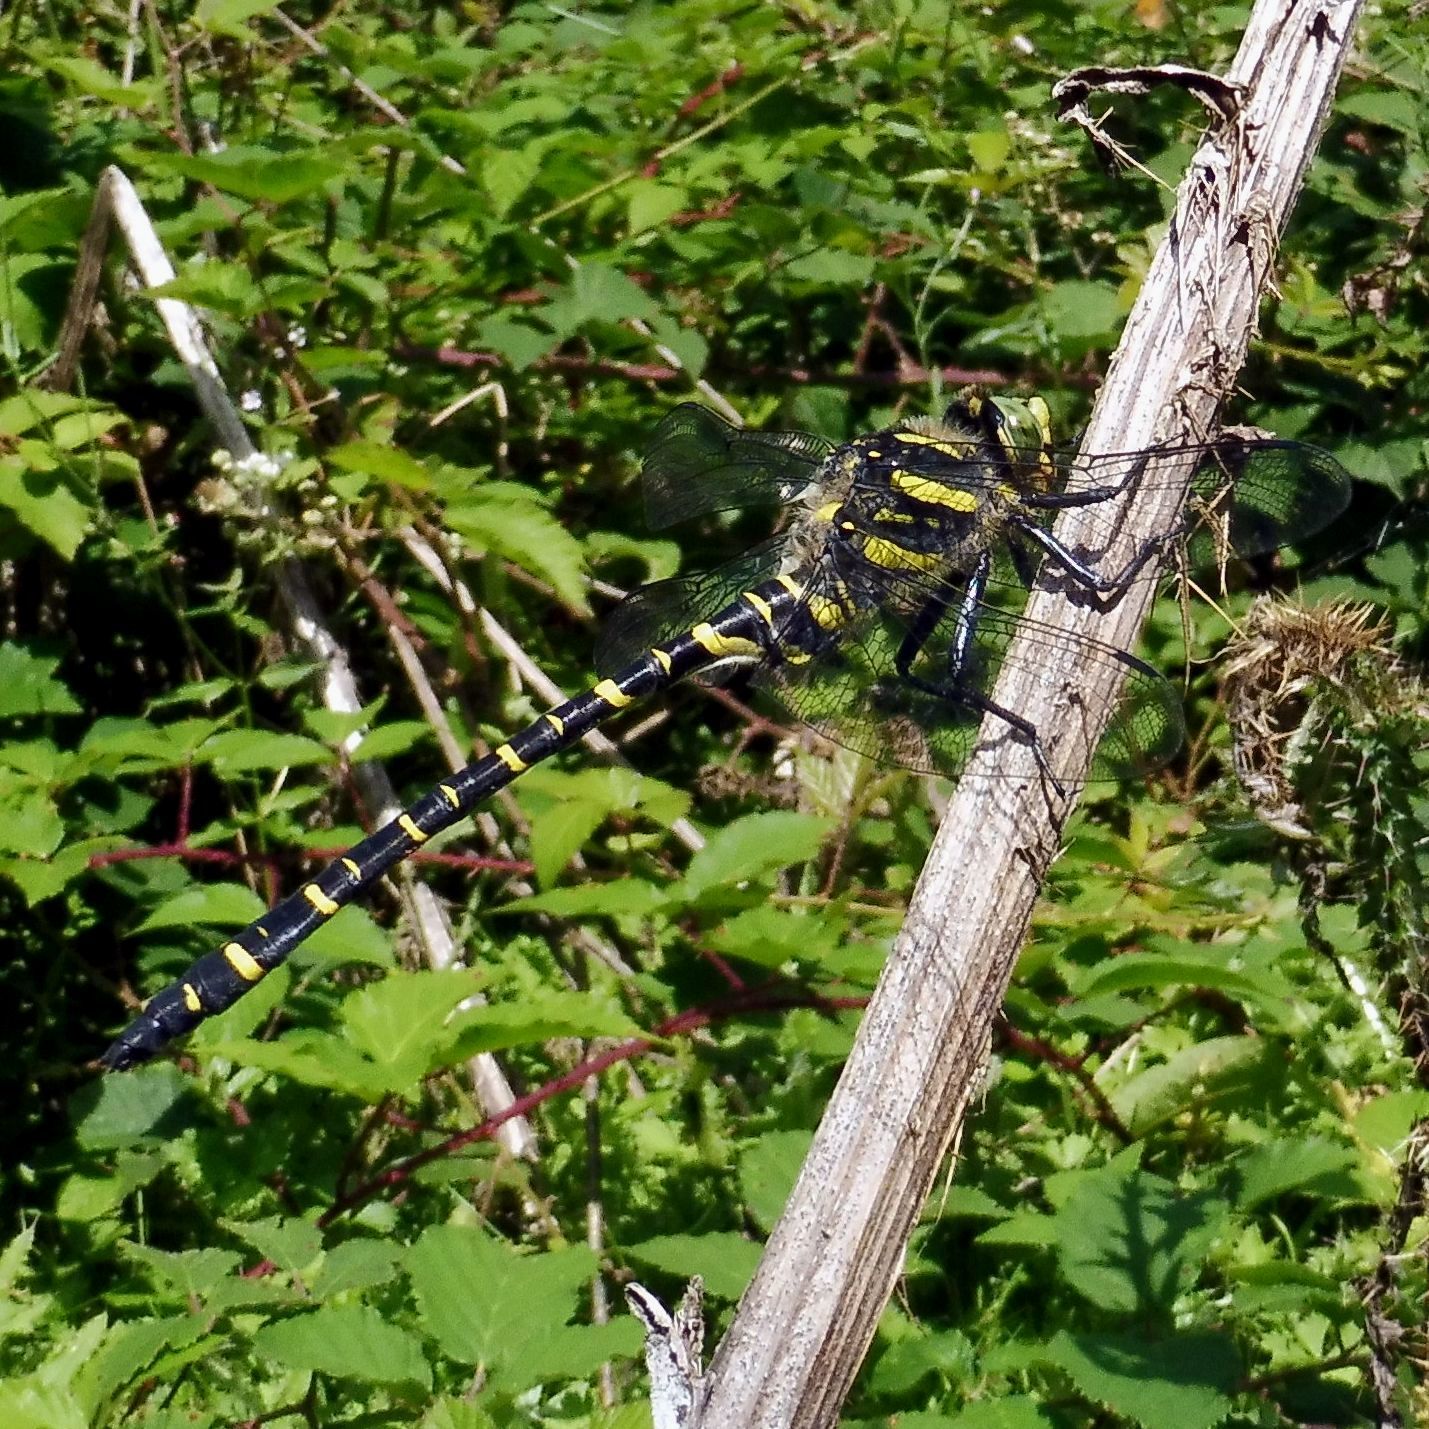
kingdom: Animalia
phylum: Arthropoda
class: Insecta
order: Odonata
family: Cordulegastridae
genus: Cordulegaster
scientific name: Cordulegaster boltonii
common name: Golden-ringed dragonfly
